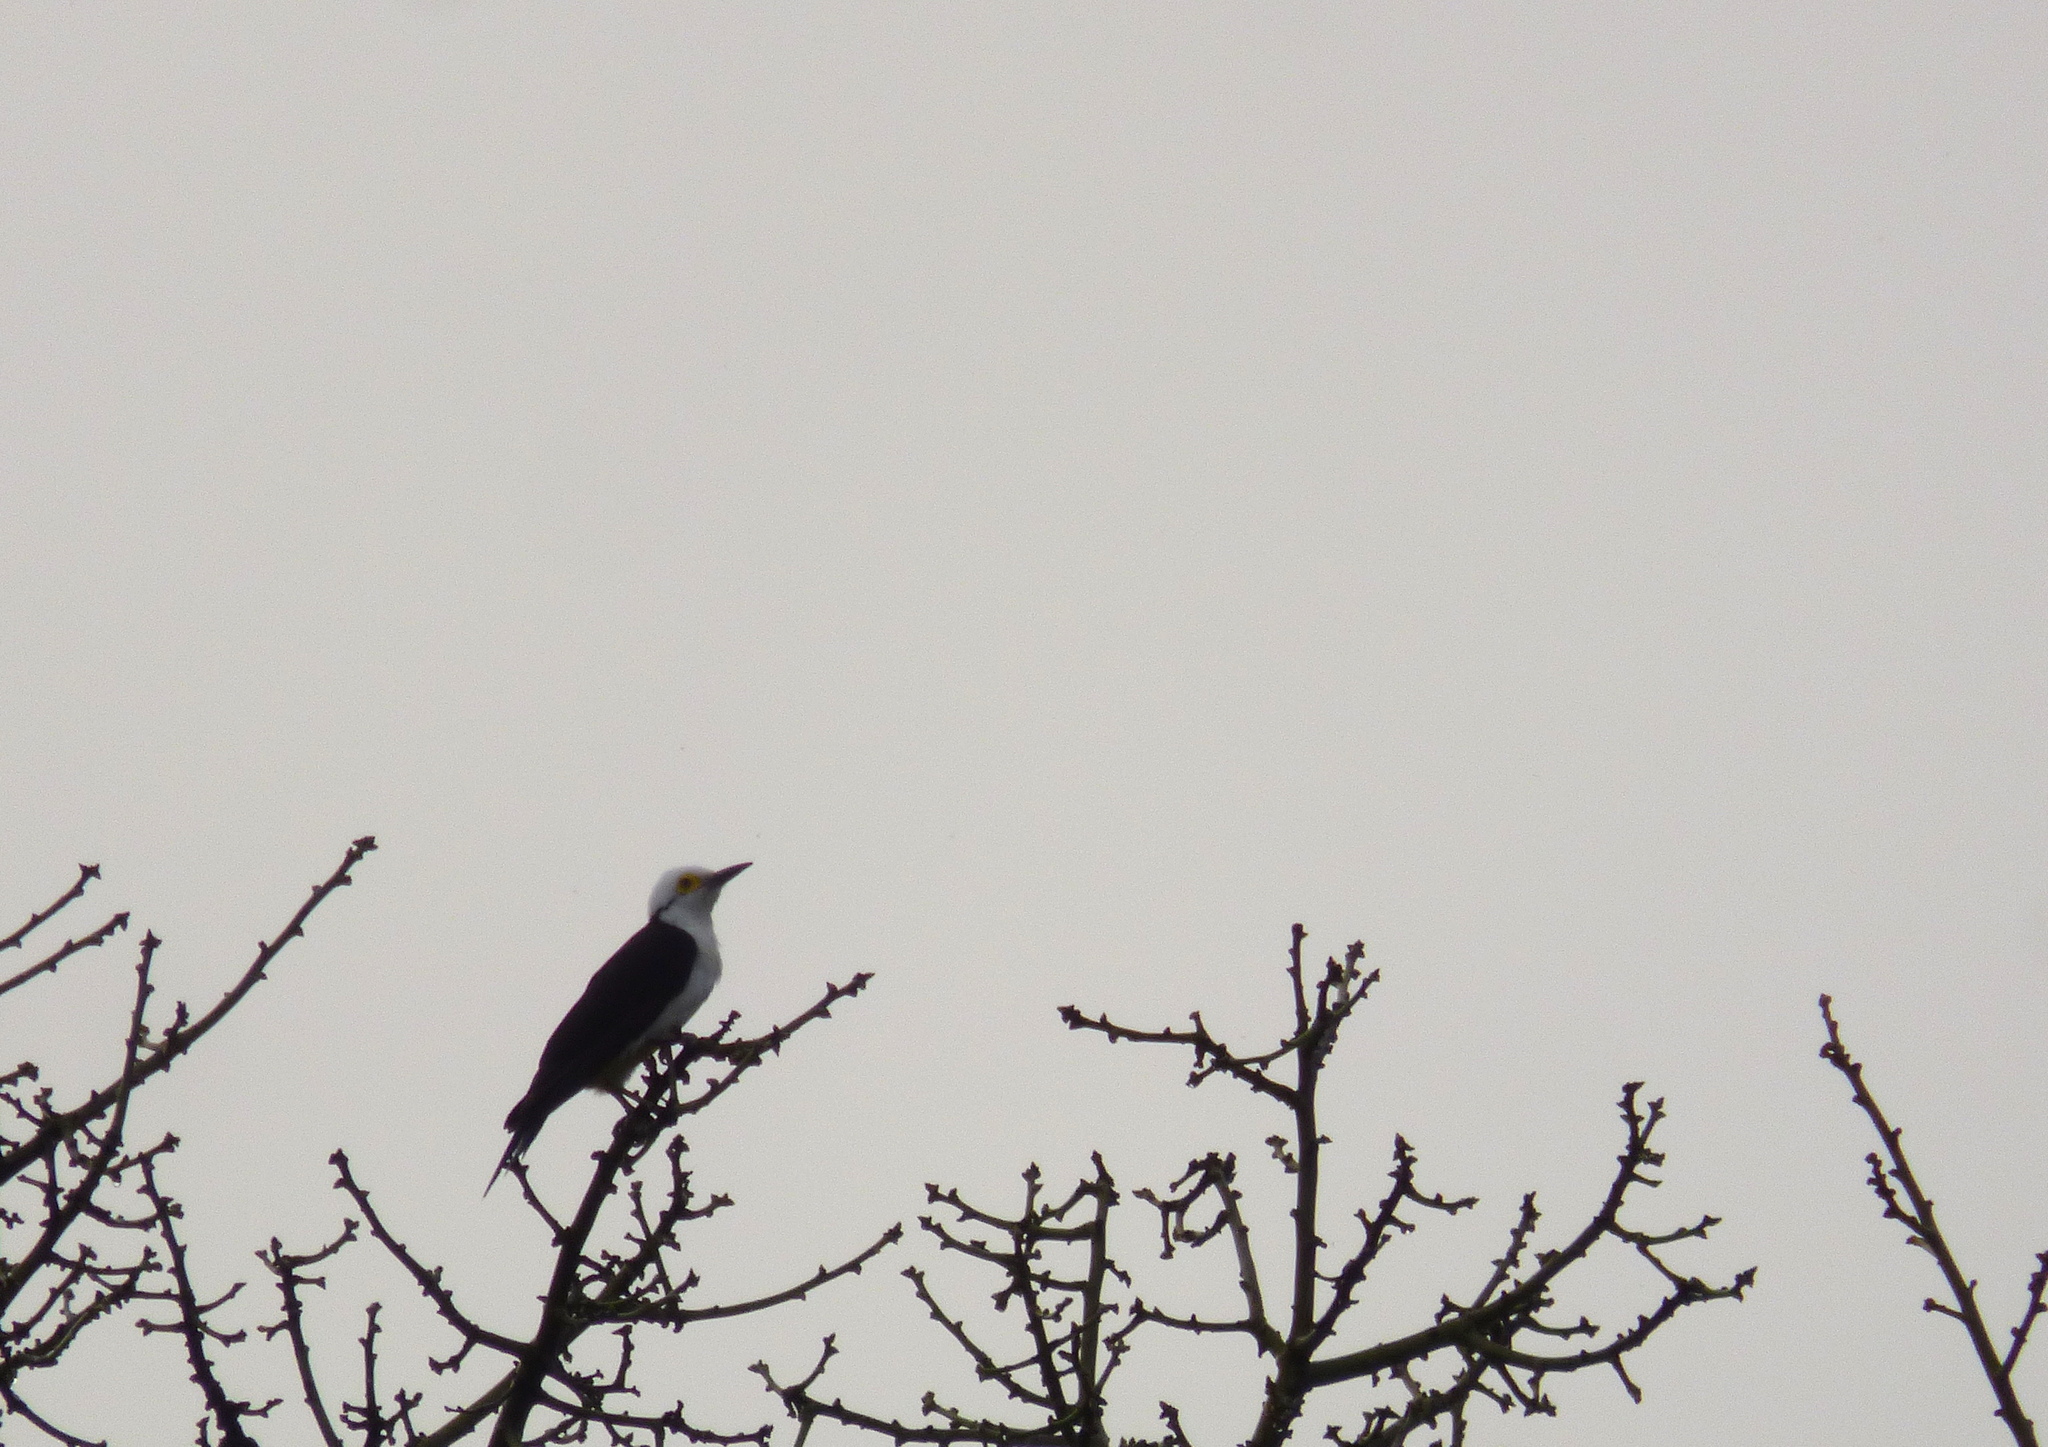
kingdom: Animalia
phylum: Chordata
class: Aves
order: Piciformes
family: Picidae
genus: Melanerpes
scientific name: Melanerpes candidus
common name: White woodpecker
